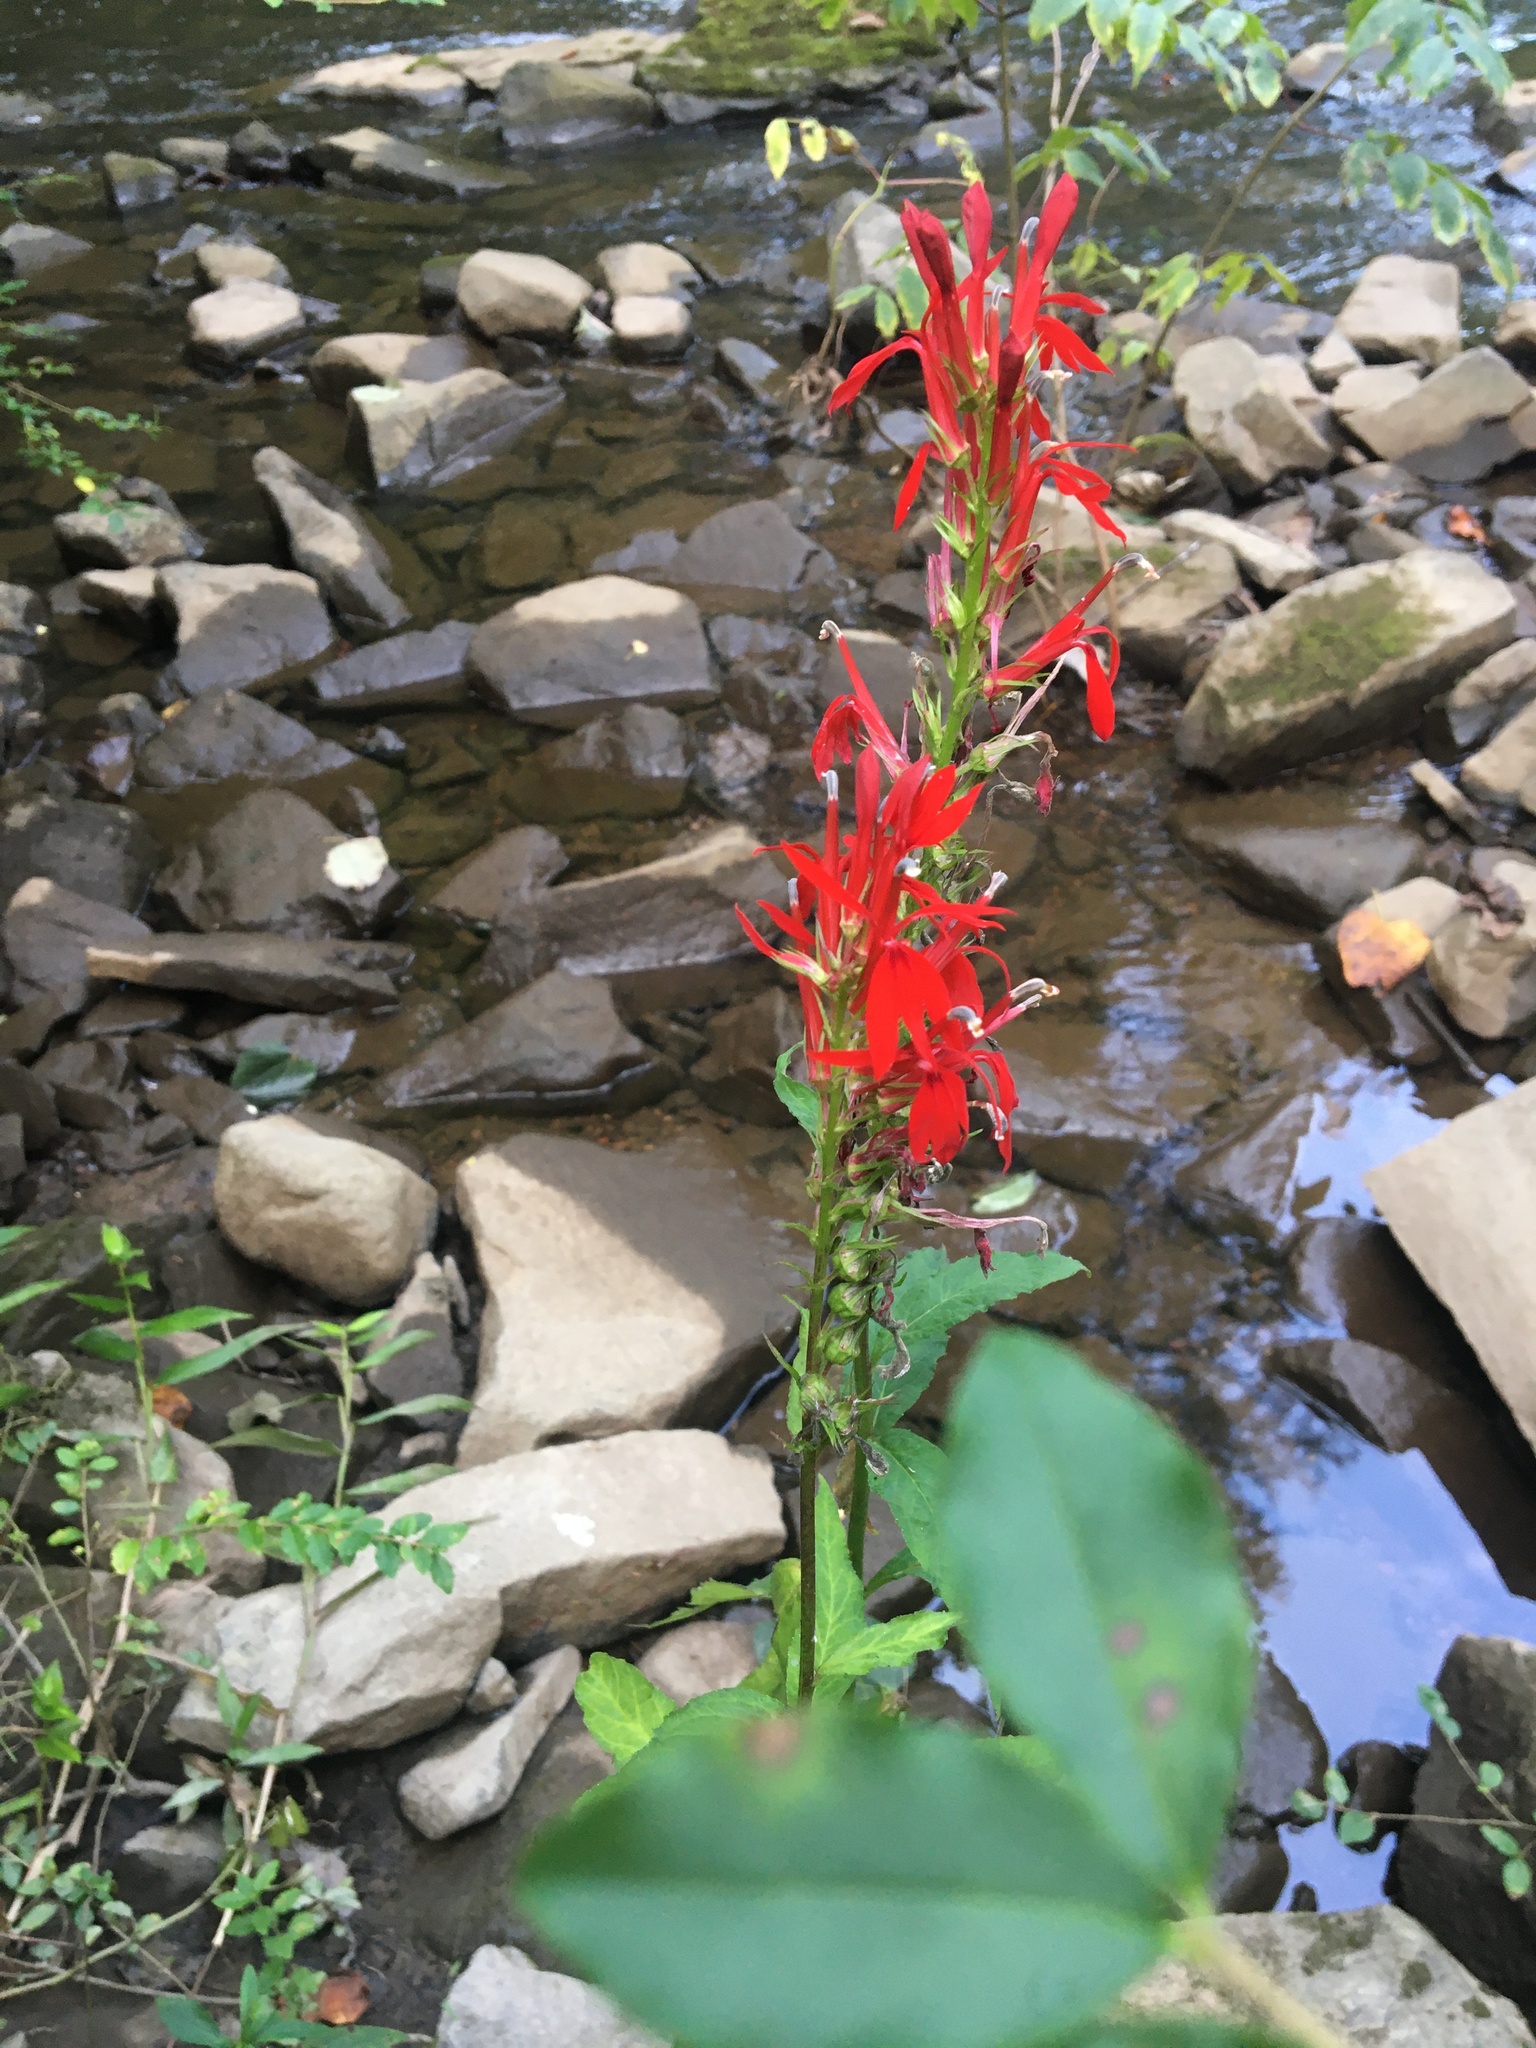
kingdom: Plantae
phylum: Tracheophyta
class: Magnoliopsida
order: Asterales
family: Campanulaceae
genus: Lobelia
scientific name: Lobelia cardinalis
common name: Cardinal flower
